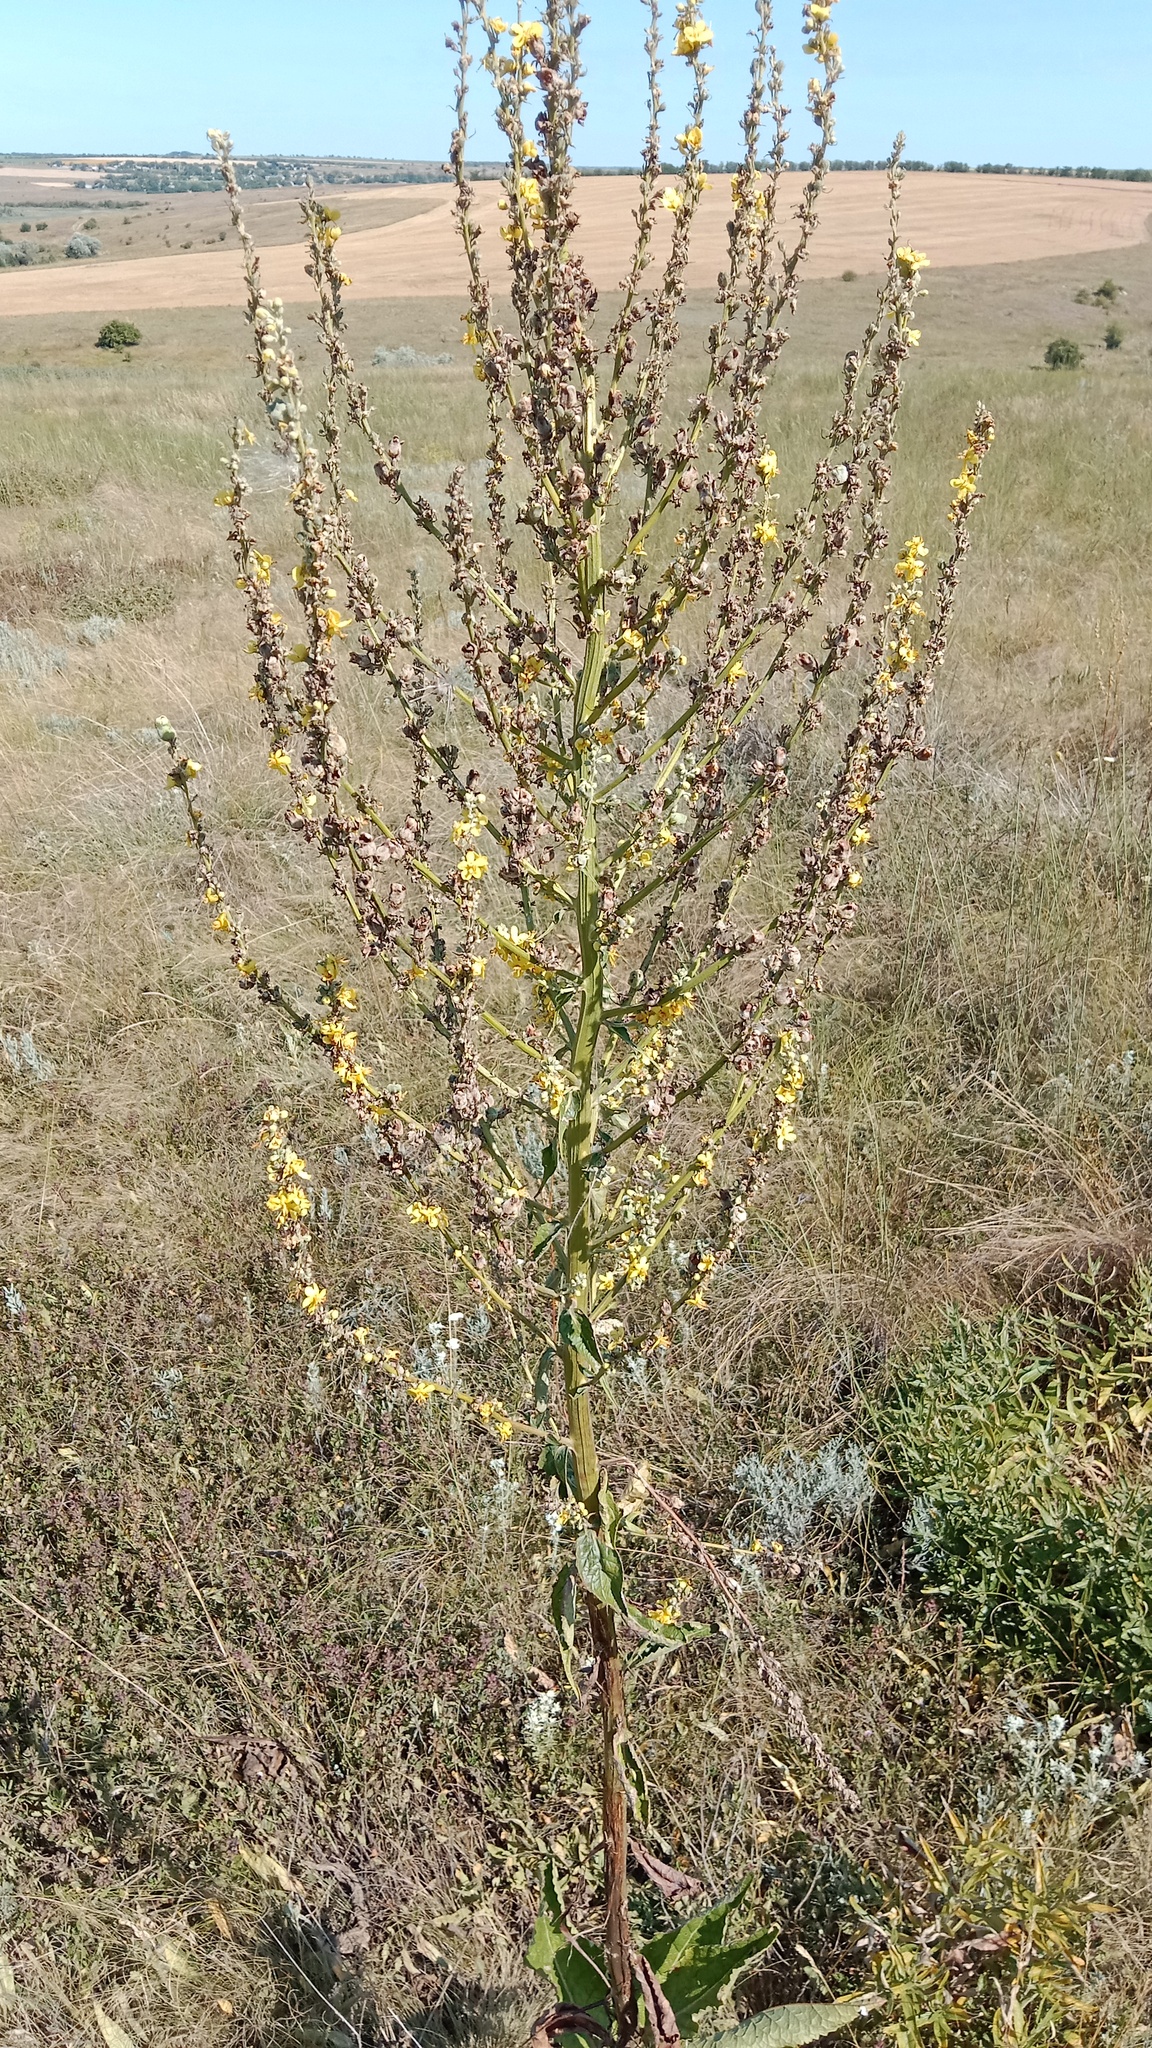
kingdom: Plantae
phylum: Tracheophyta
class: Magnoliopsida
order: Lamiales
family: Scrophulariaceae
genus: Verbascum
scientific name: Verbascum lychnitis
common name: White mullein
